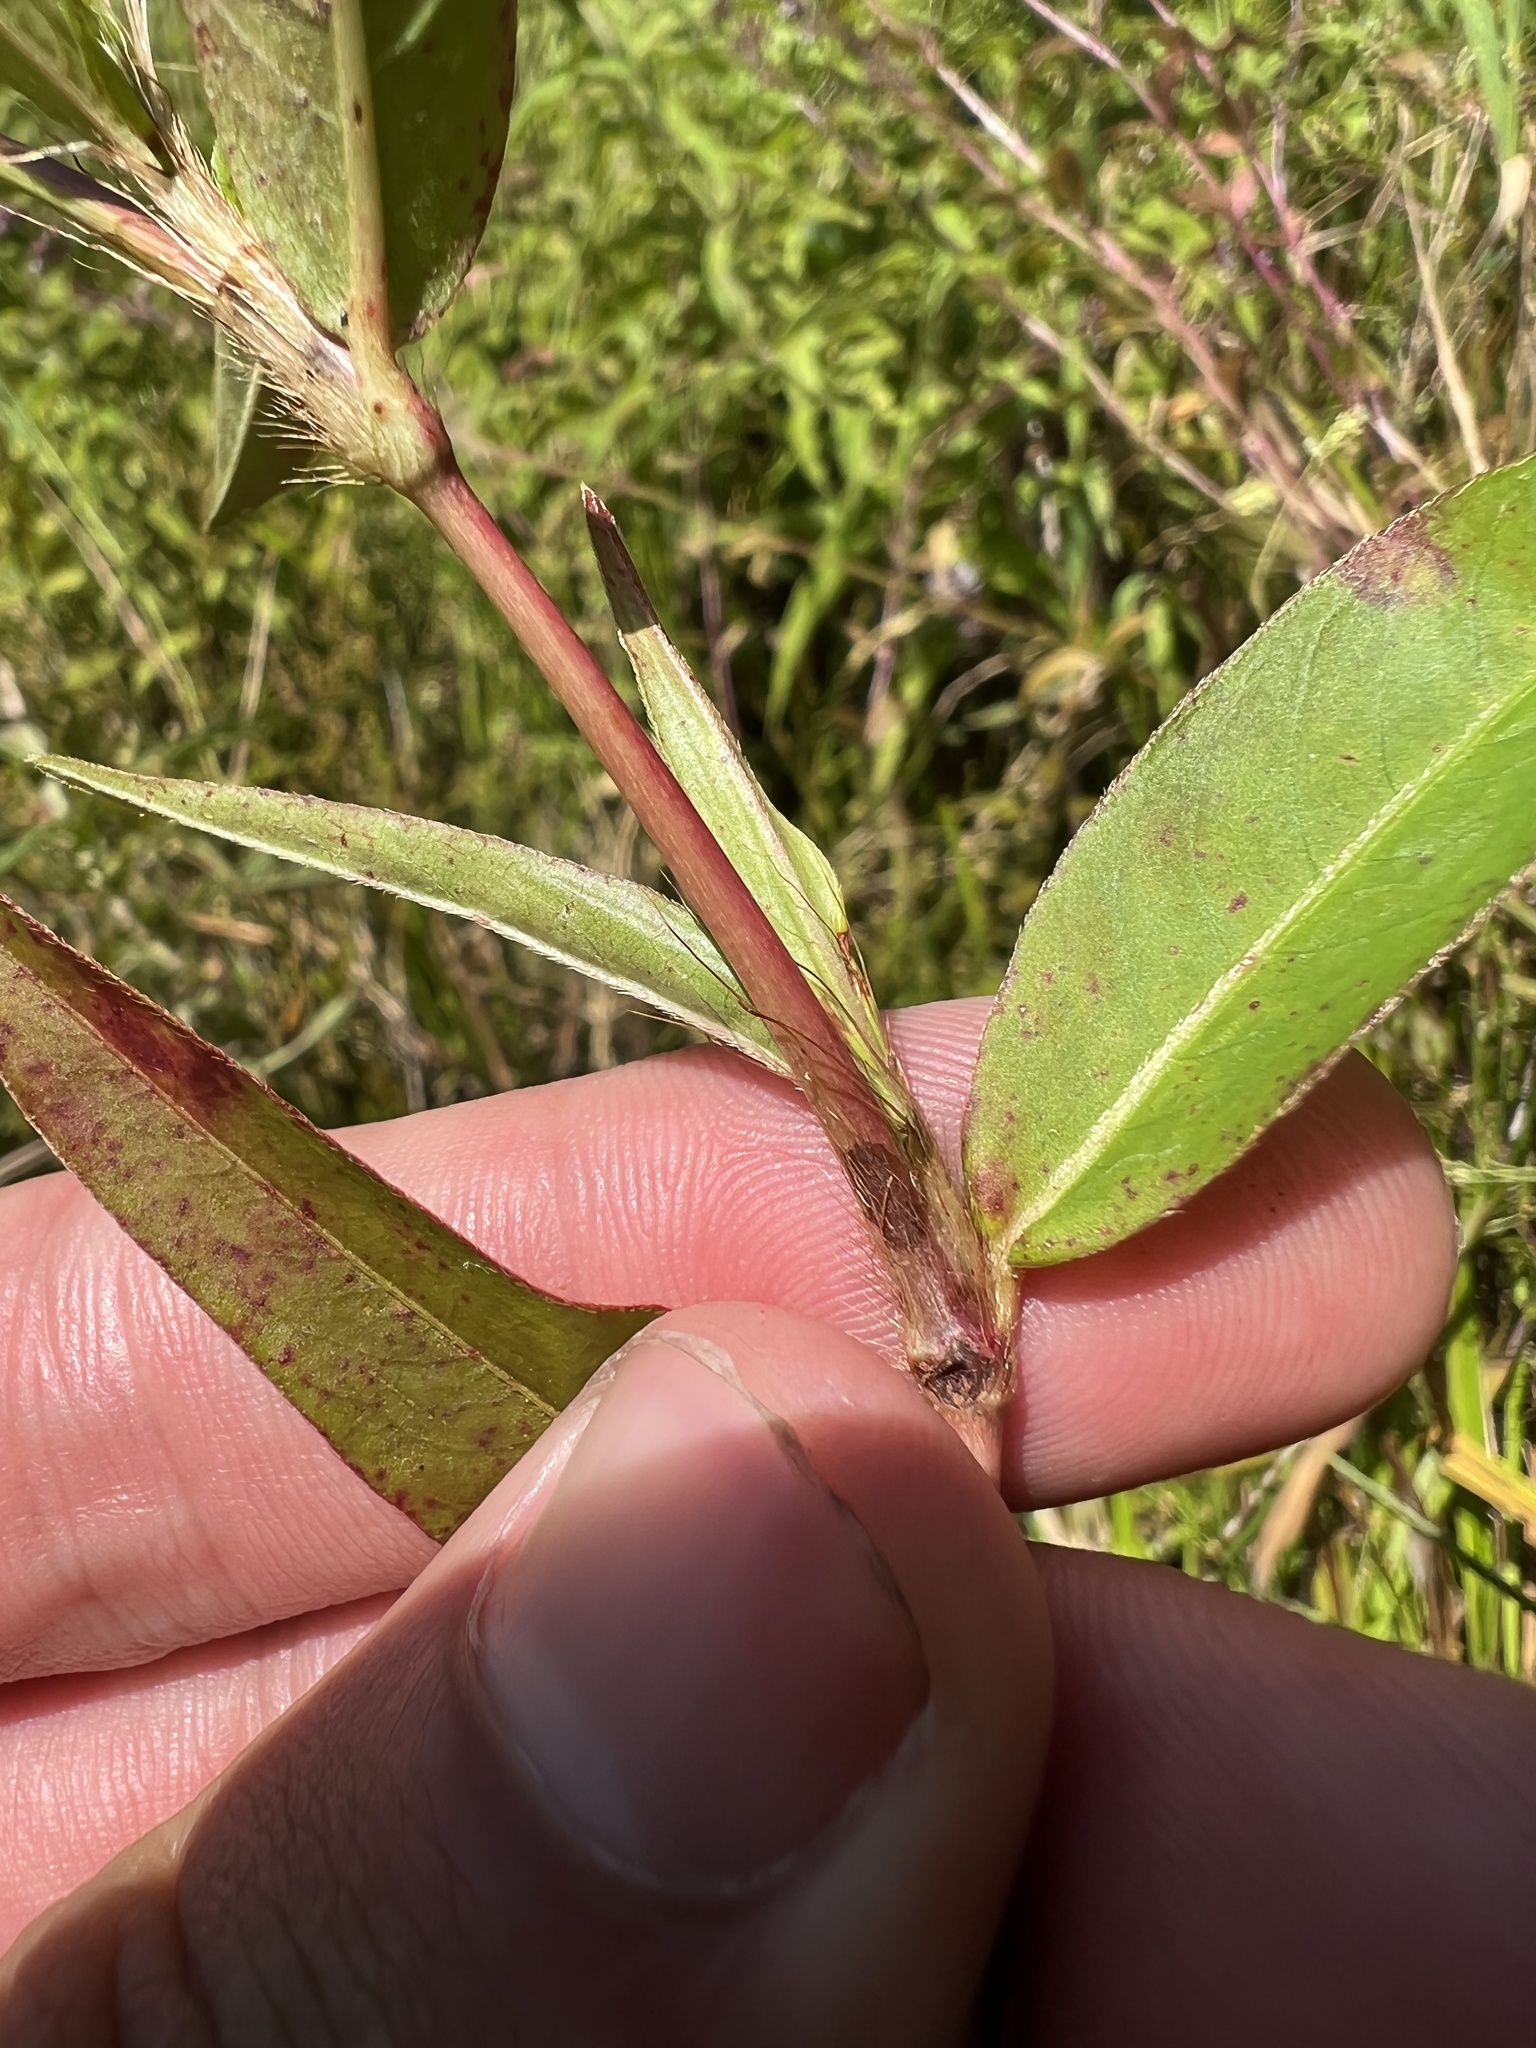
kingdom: Plantae
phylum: Tracheophyta
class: Magnoliopsida
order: Caryophyllales
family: Polygonaceae
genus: Persicaria
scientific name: Persicaria setacea
